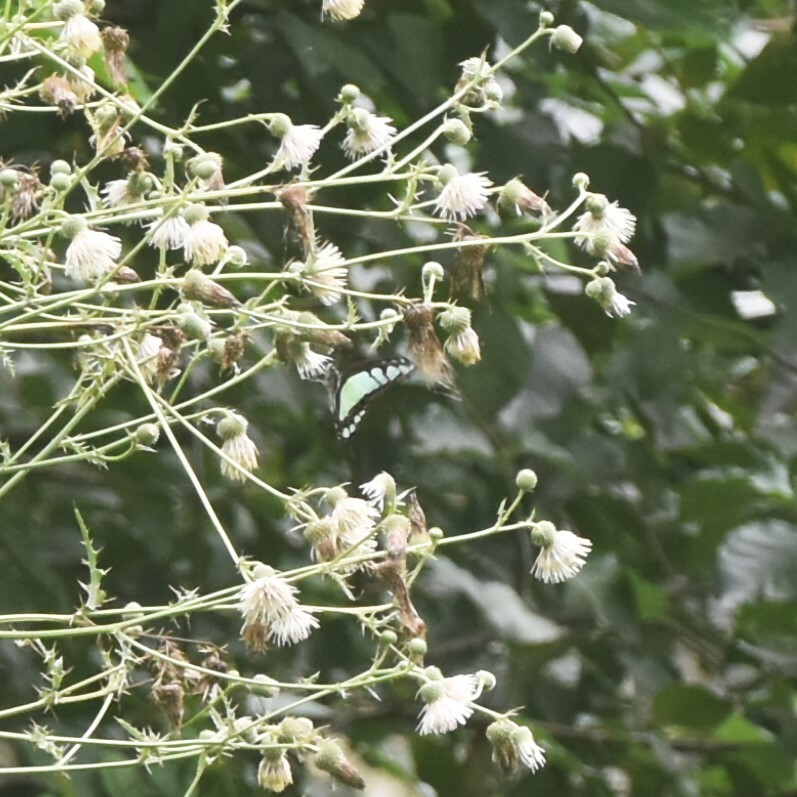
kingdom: Animalia
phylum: Arthropoda
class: Insecta
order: Lepidoptera
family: Papilionidae
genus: Graphium
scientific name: Graphium cloanthus
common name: Glassy bluebottle
